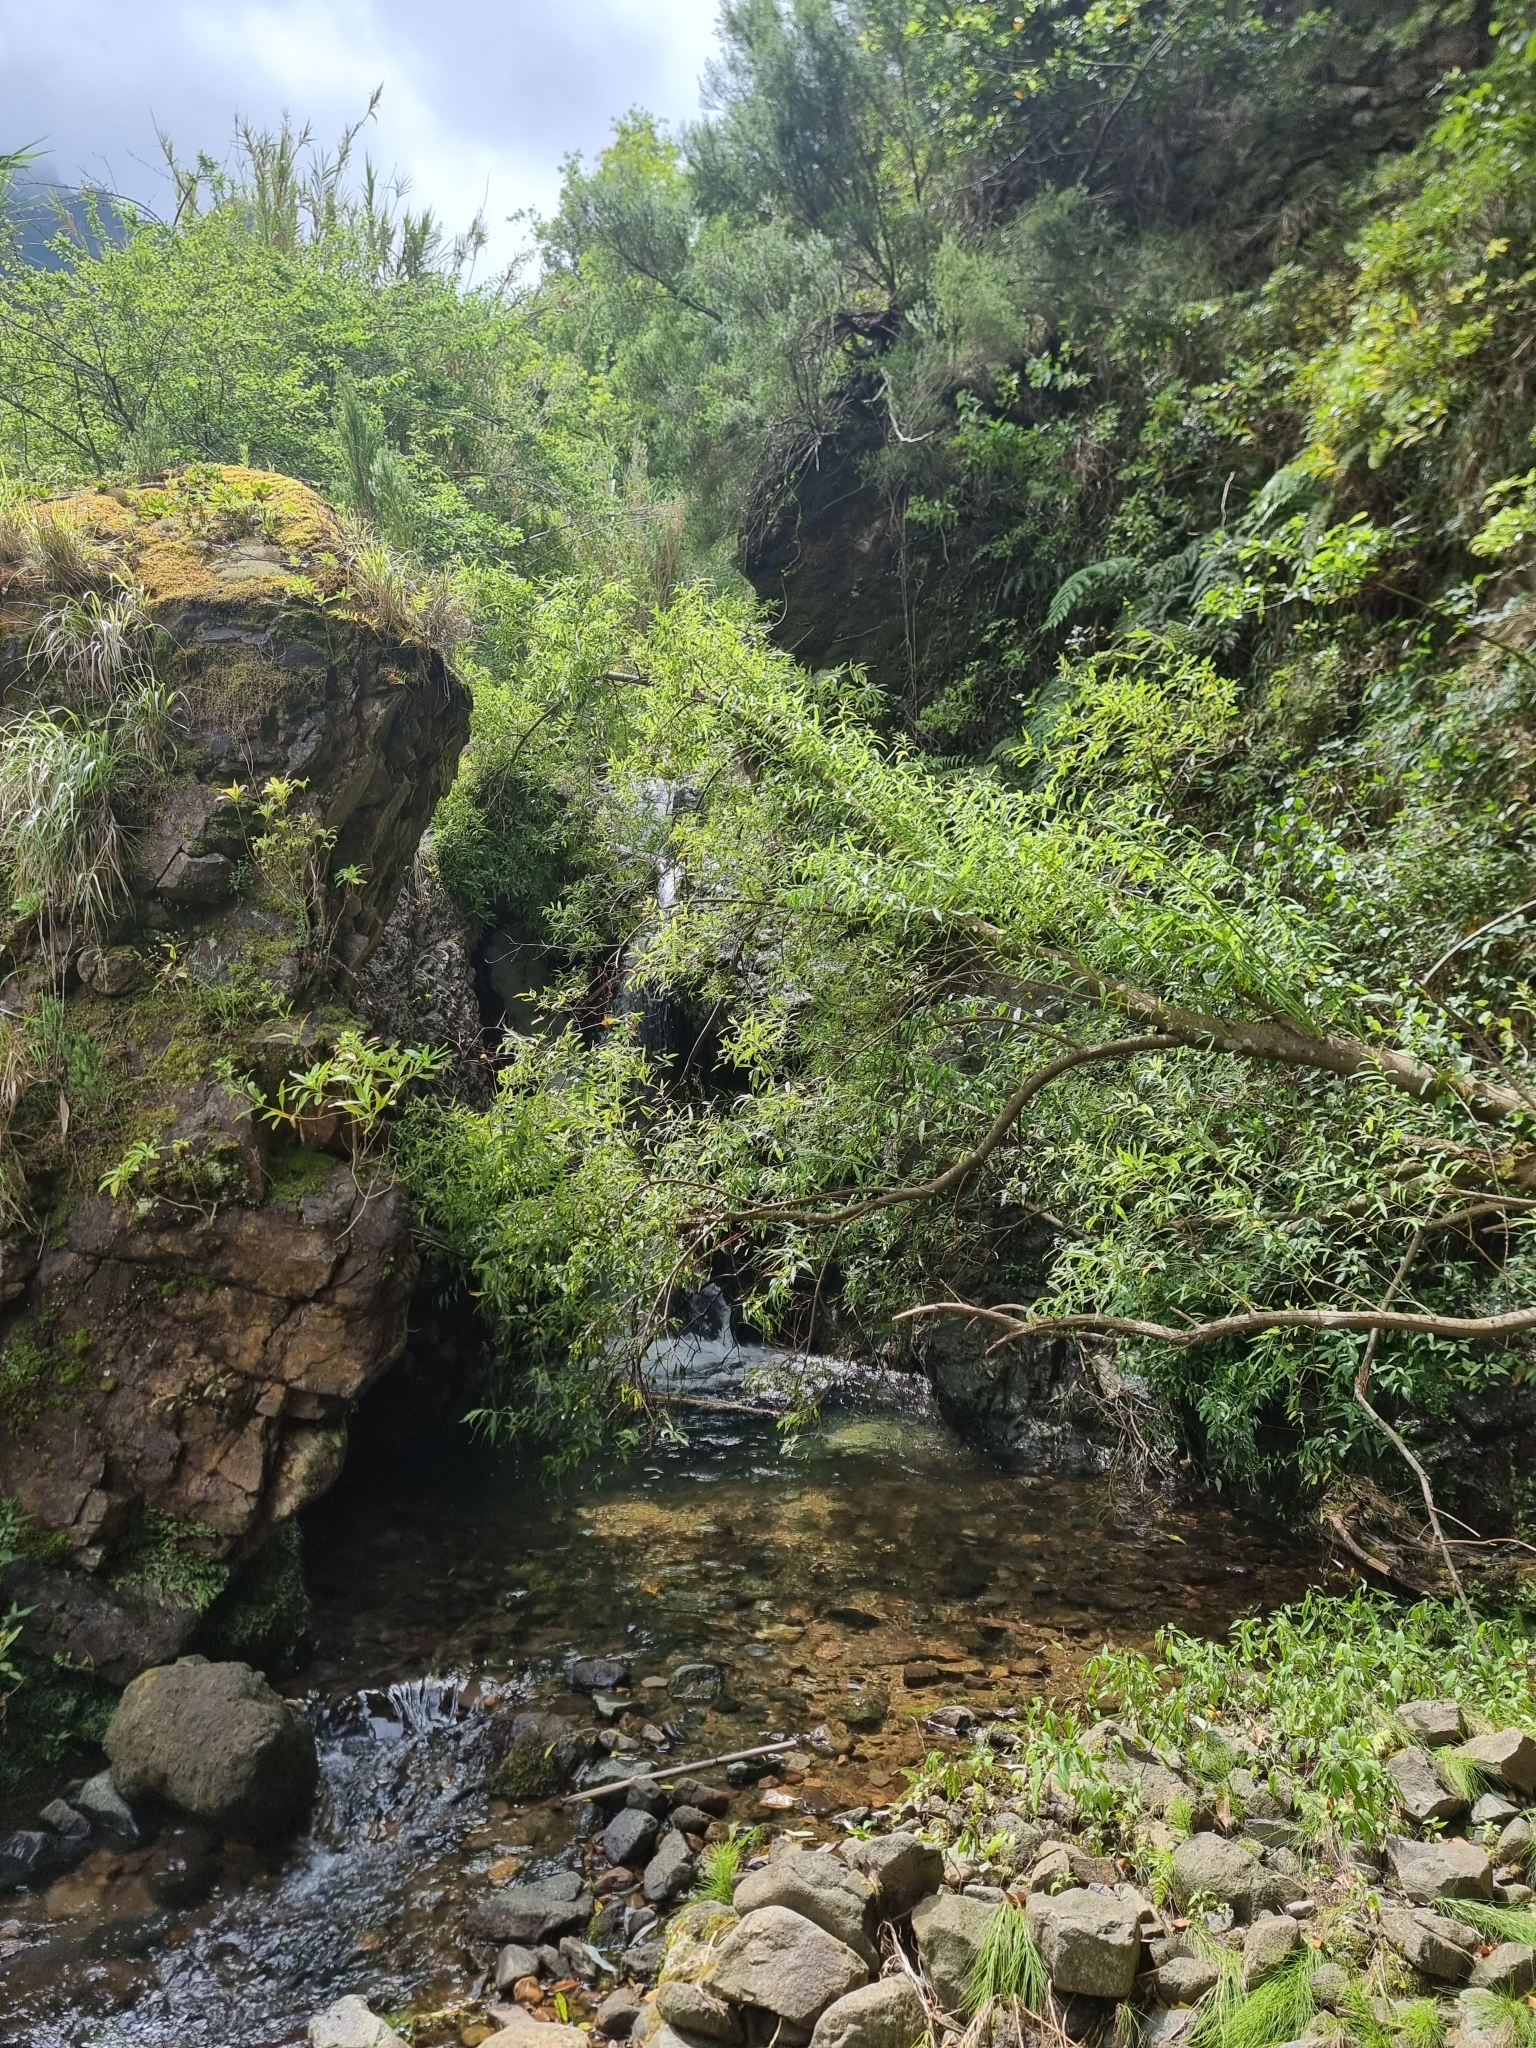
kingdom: Plantae
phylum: Tracheophyta
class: Magnoliopsida
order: Malpighiales
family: Salicaceae
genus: Salix
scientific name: Salix canariensis
